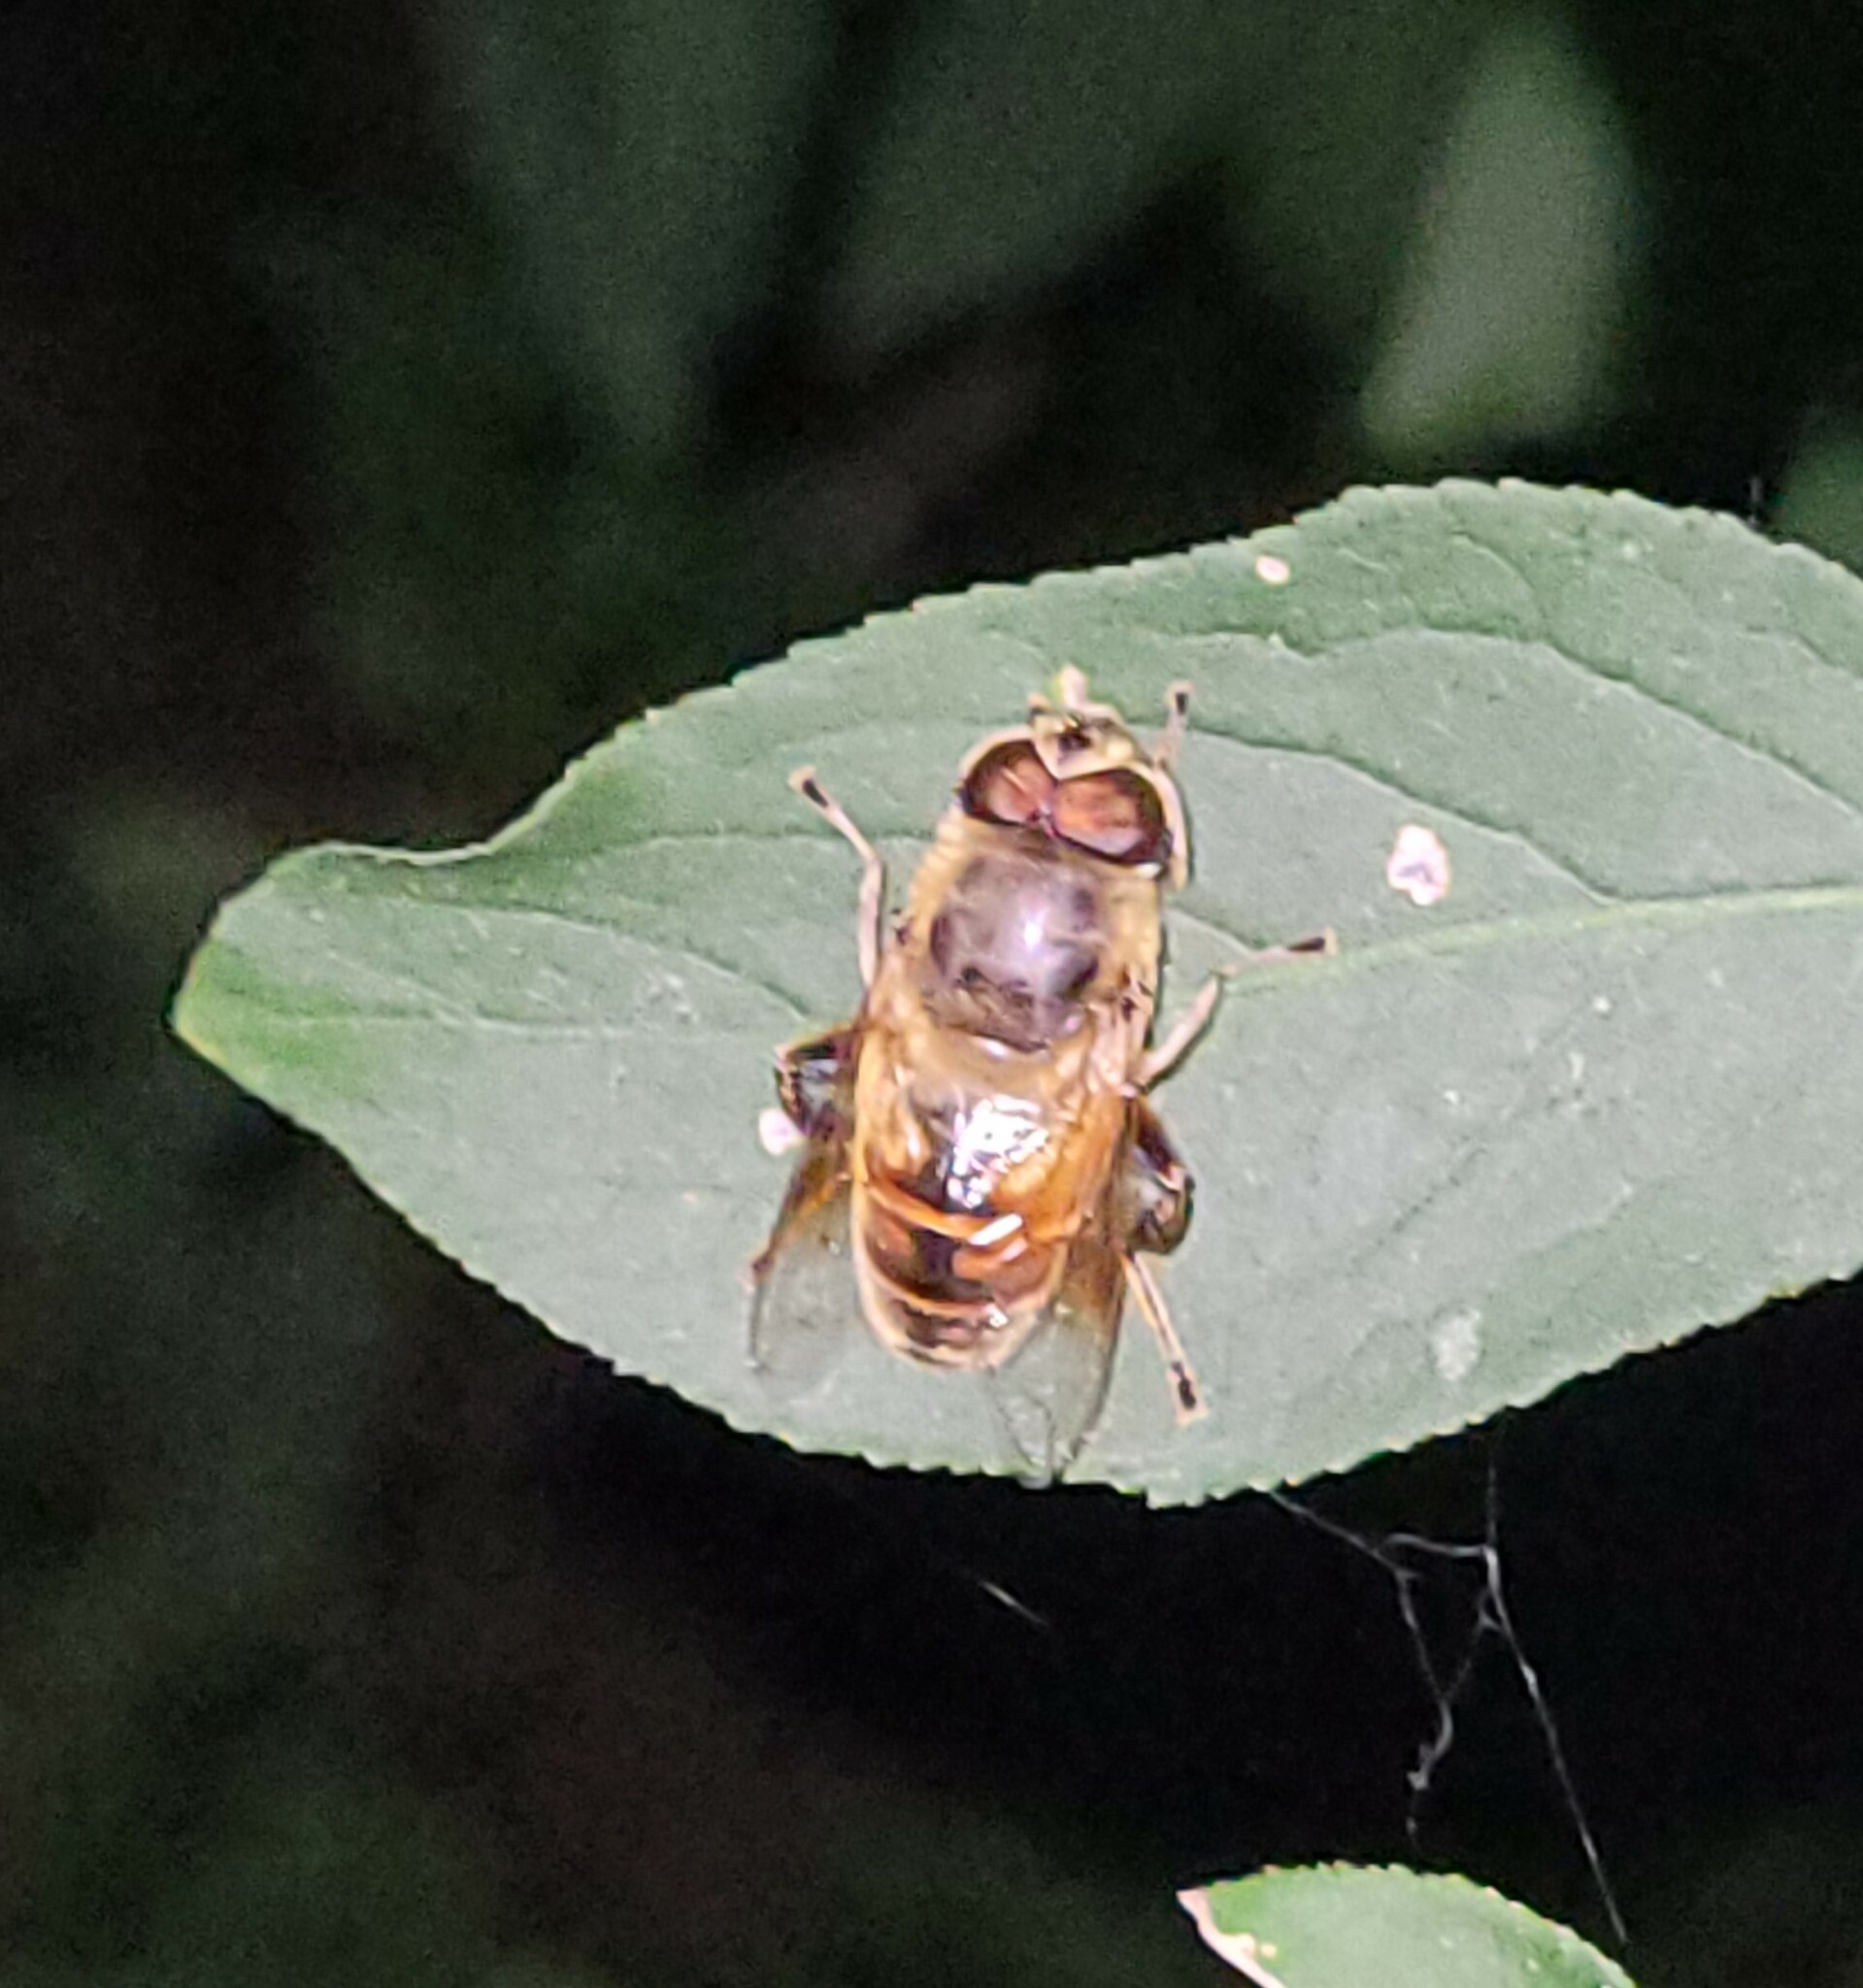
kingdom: Animalia
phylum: Arthropoda
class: Insecta
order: Diptera
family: Syrphidae
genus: Eristalis
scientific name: Eristalis tenax
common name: Drone fly
